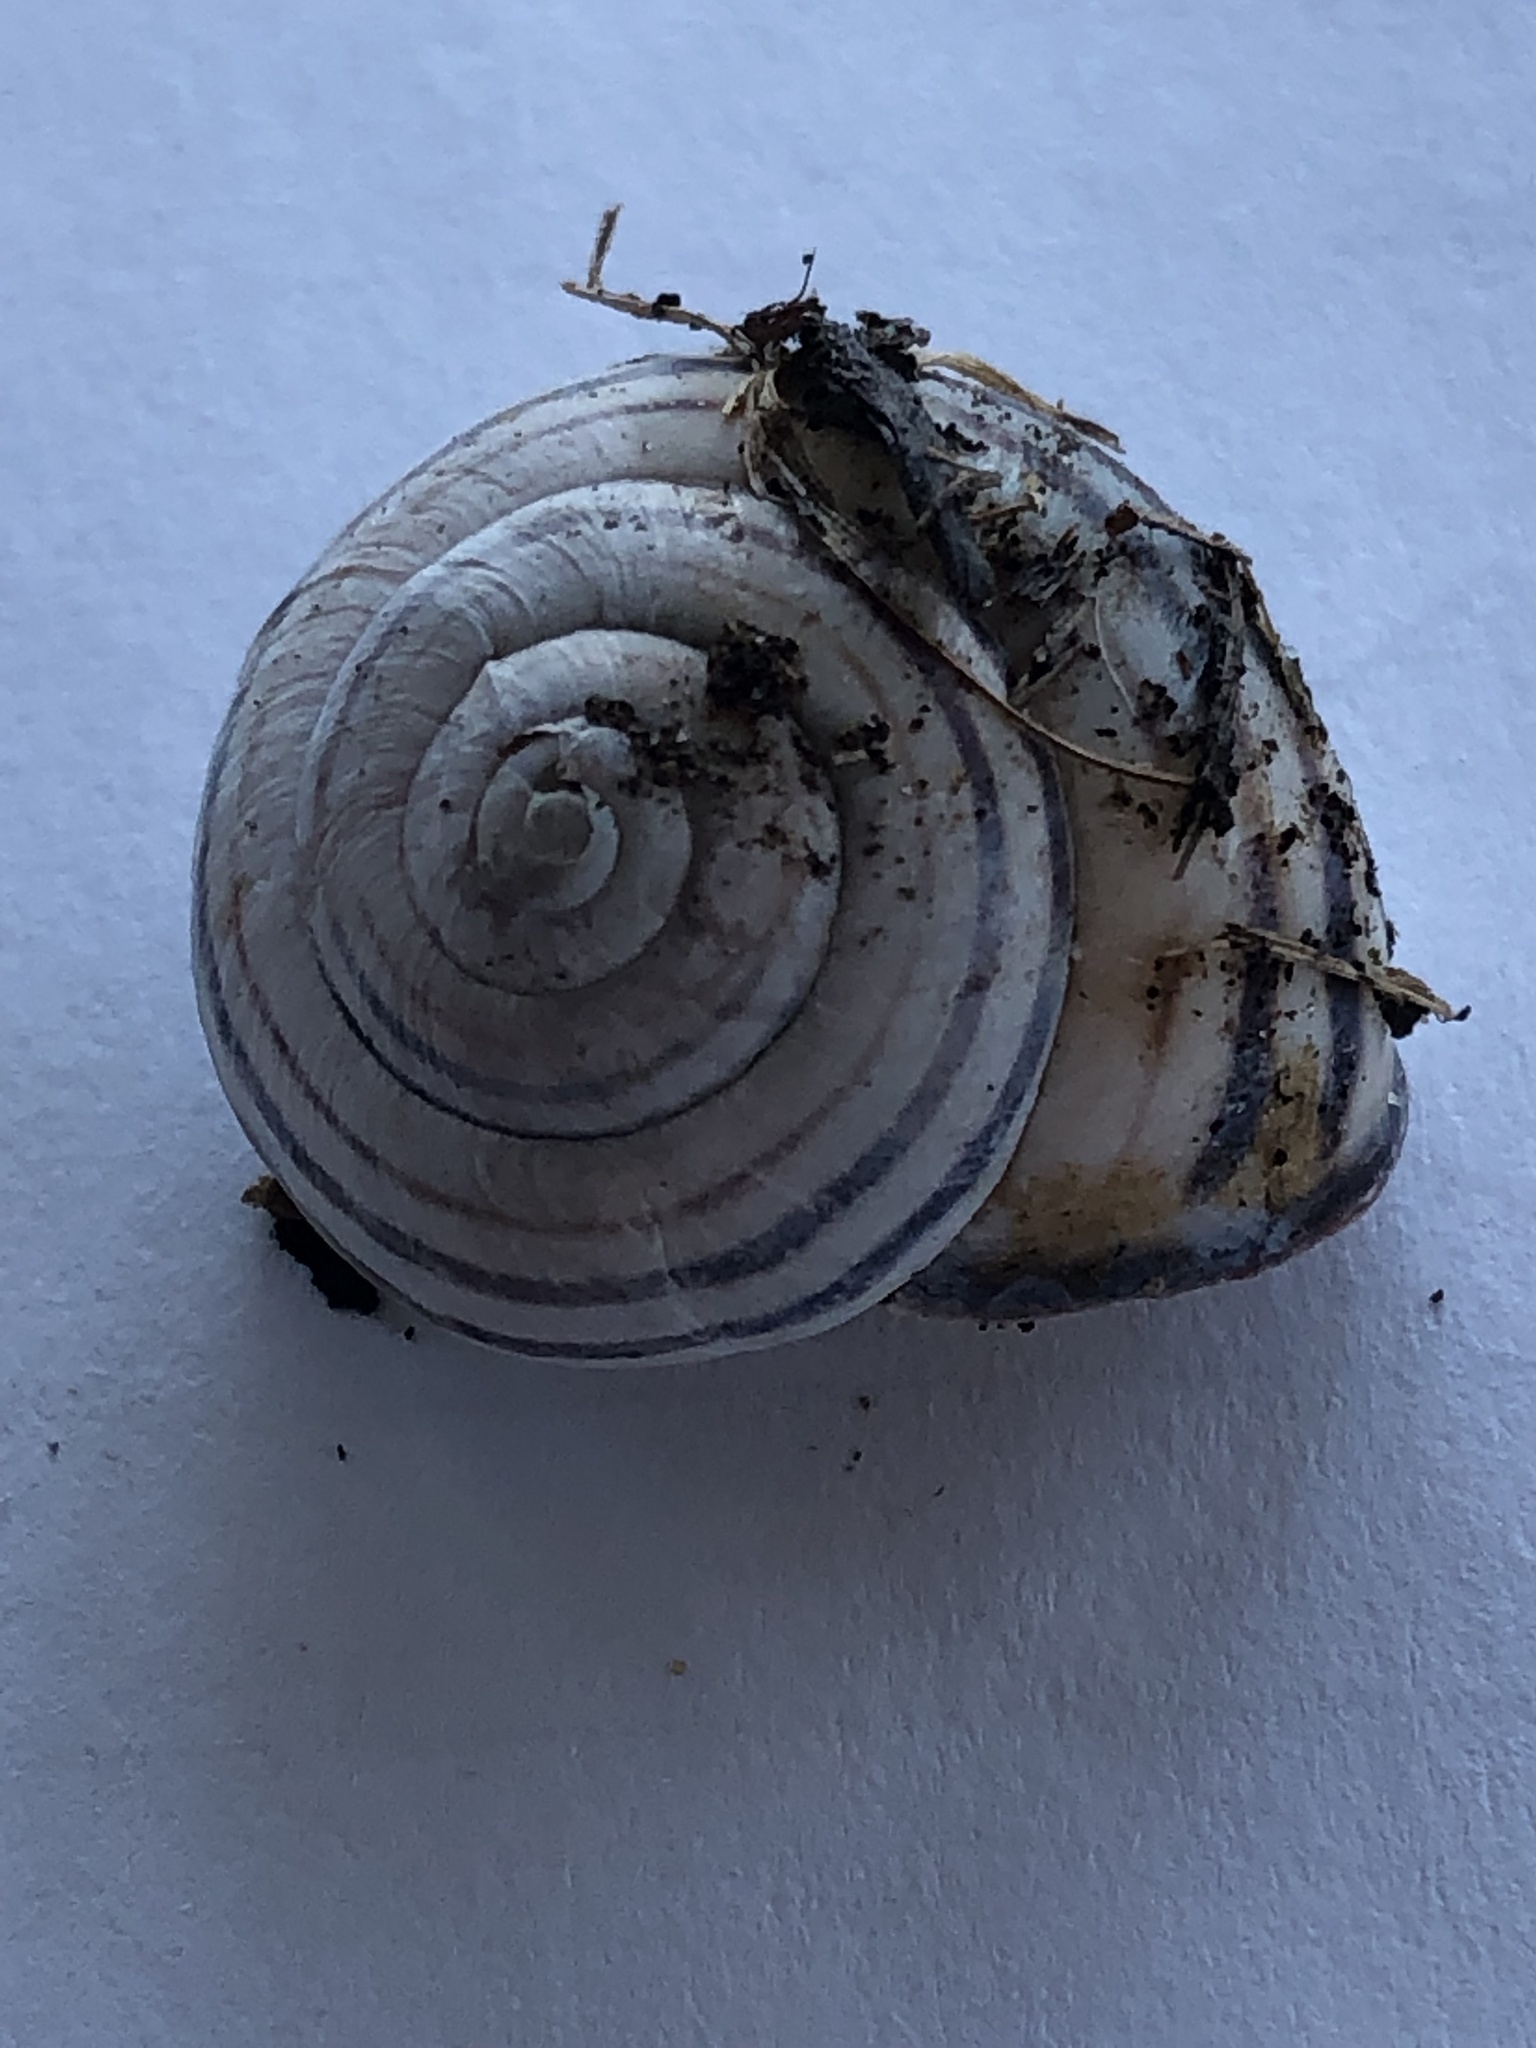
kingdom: Animalia
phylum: Mollusca
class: Gastropoda
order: Stylommatophora
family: Helicidae
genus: Cepaea
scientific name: Cepaea nemoralis
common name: Grovesnail
